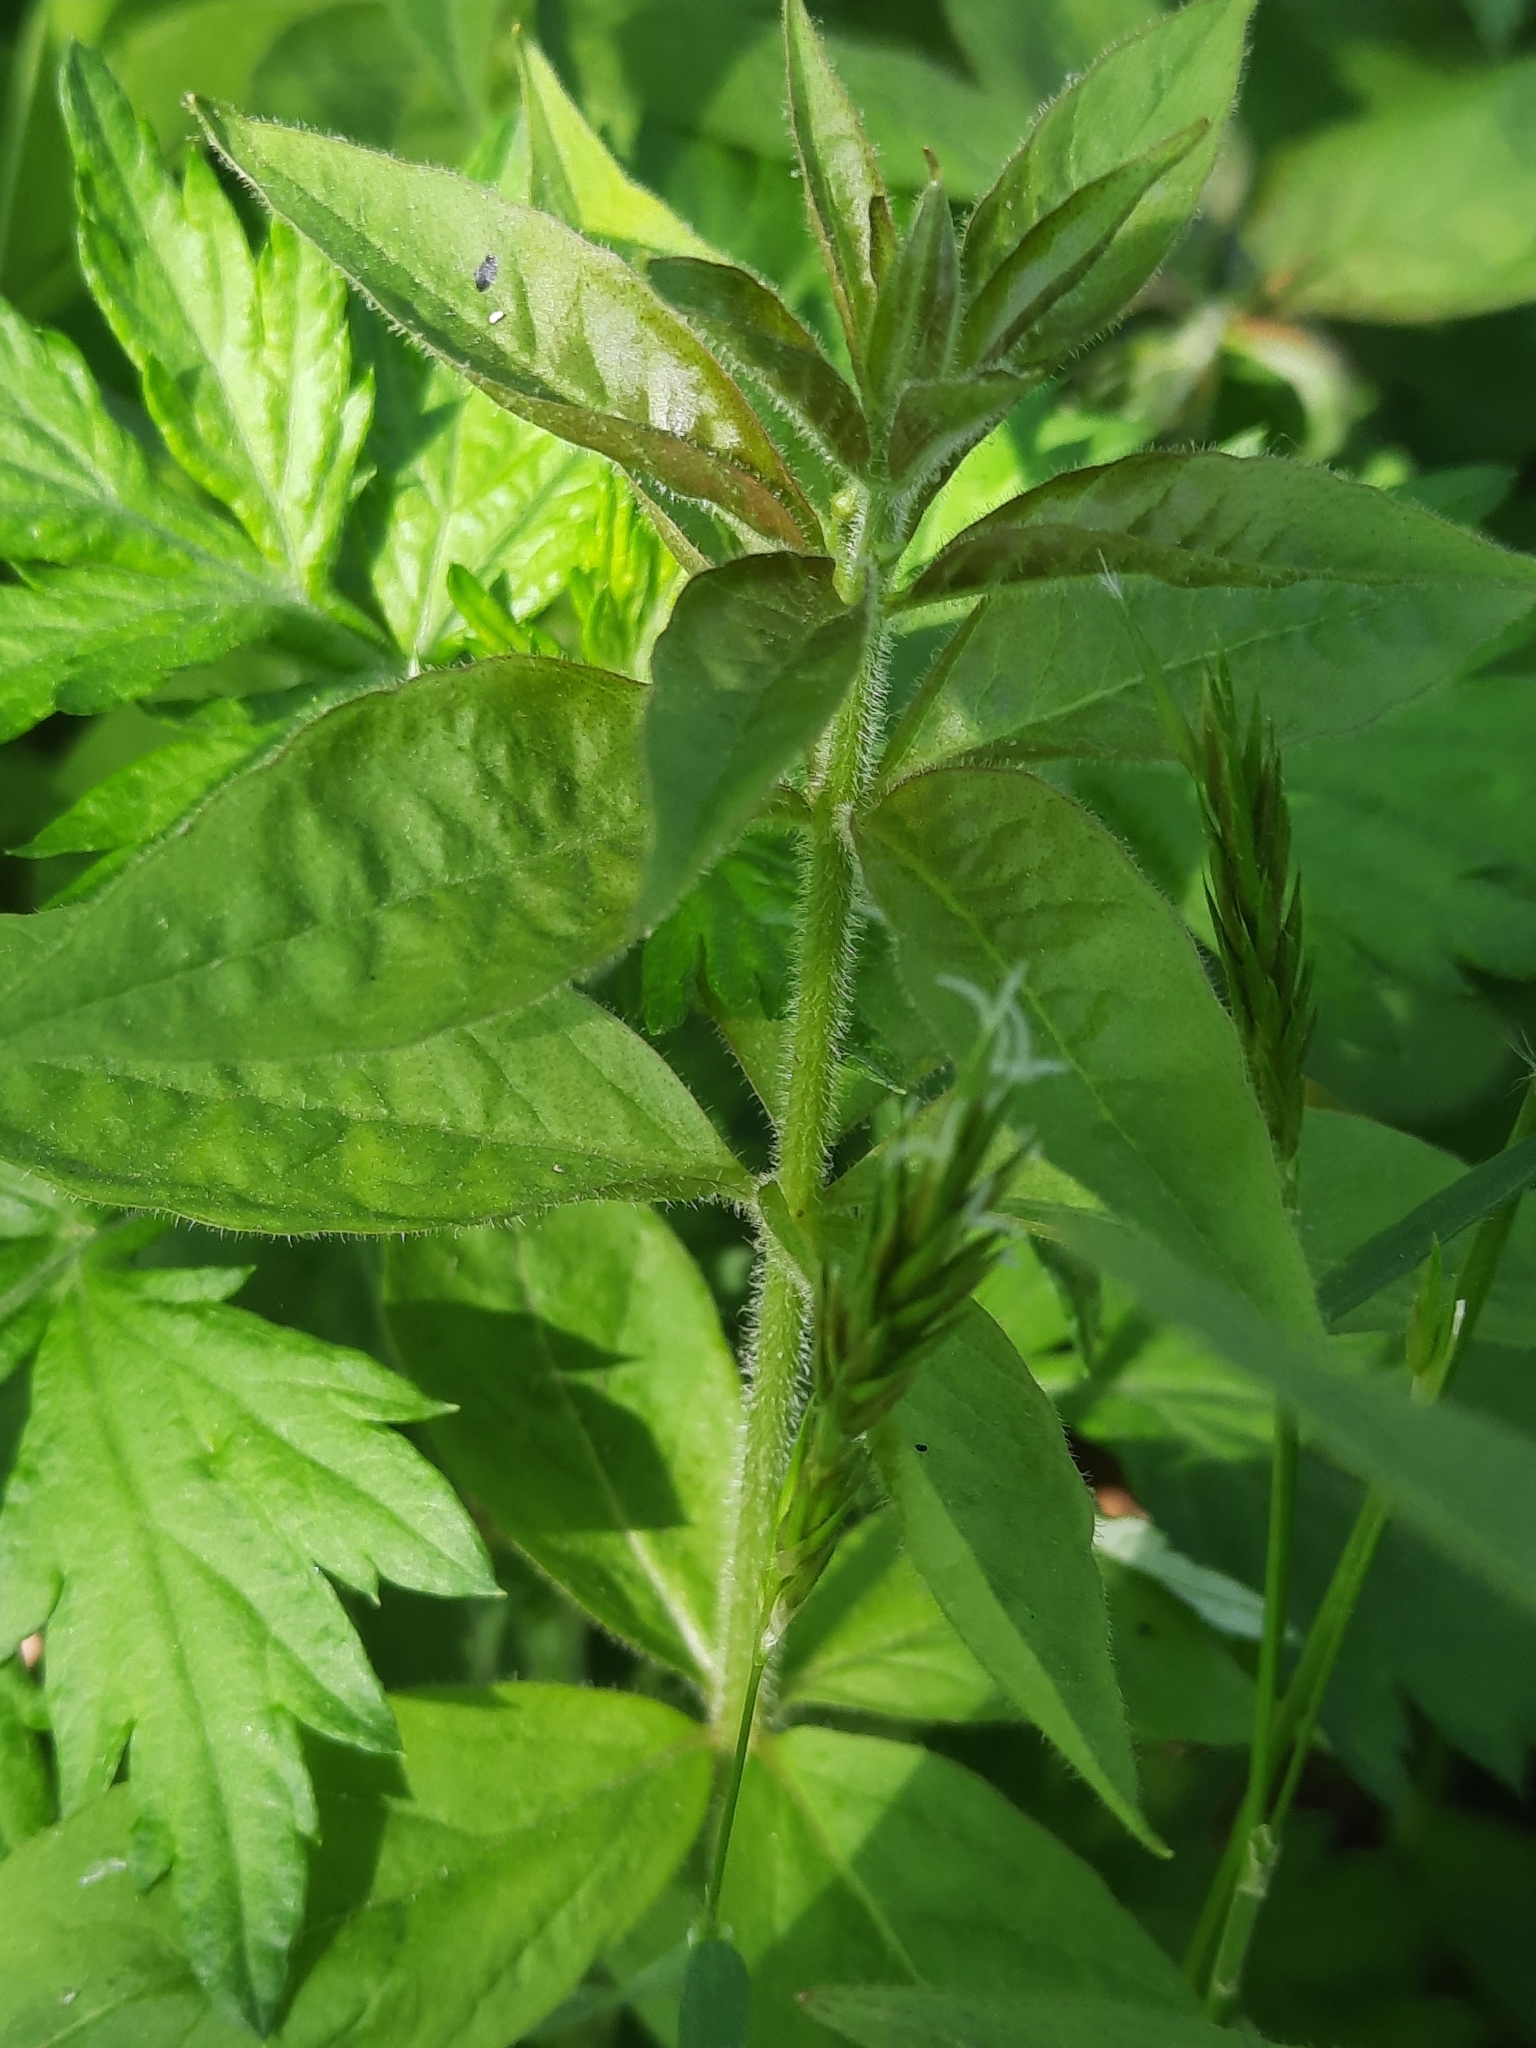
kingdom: Plantae
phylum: Tracheophyta
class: Magnoliopsida
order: Ericales
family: Primulaceae
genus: Lysimachia
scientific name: Lysimachia quadrifolia
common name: Whorled loosestrife
